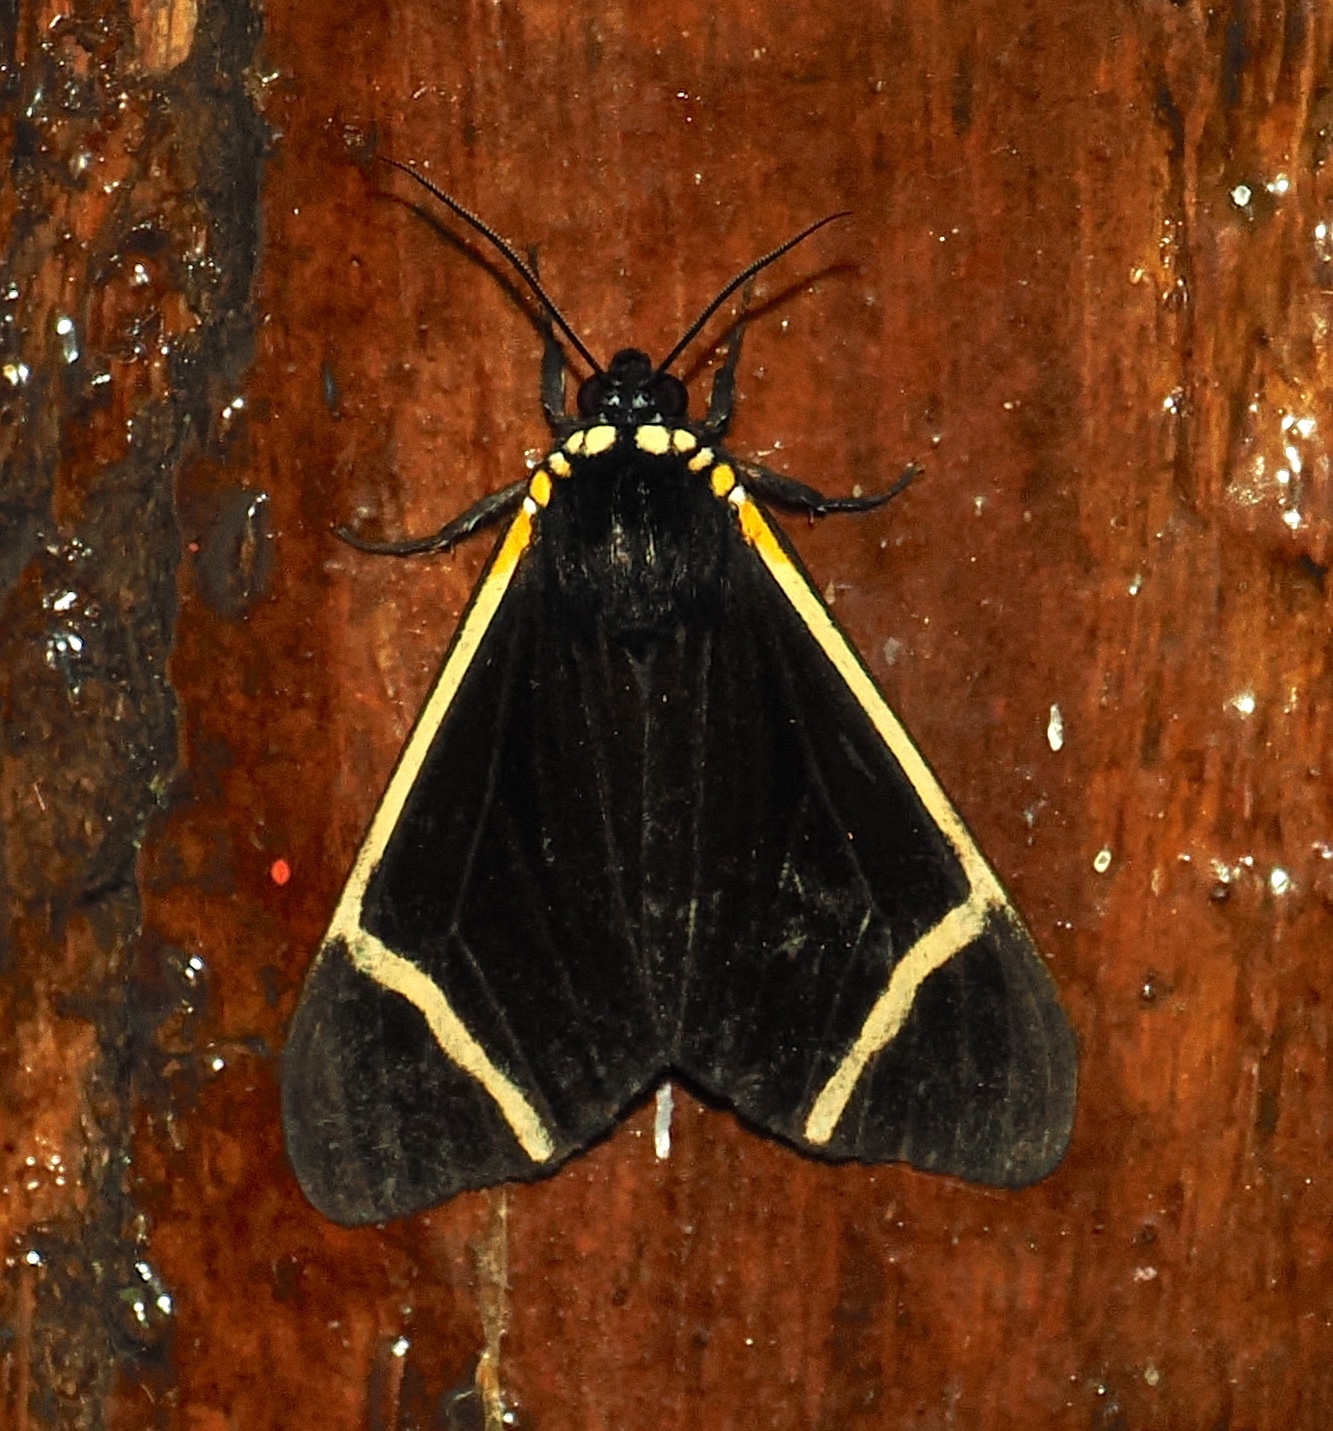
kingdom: Animalia
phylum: Arthropoda
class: Insecta
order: Lepidoptera
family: Erebidae
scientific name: Erebidae
